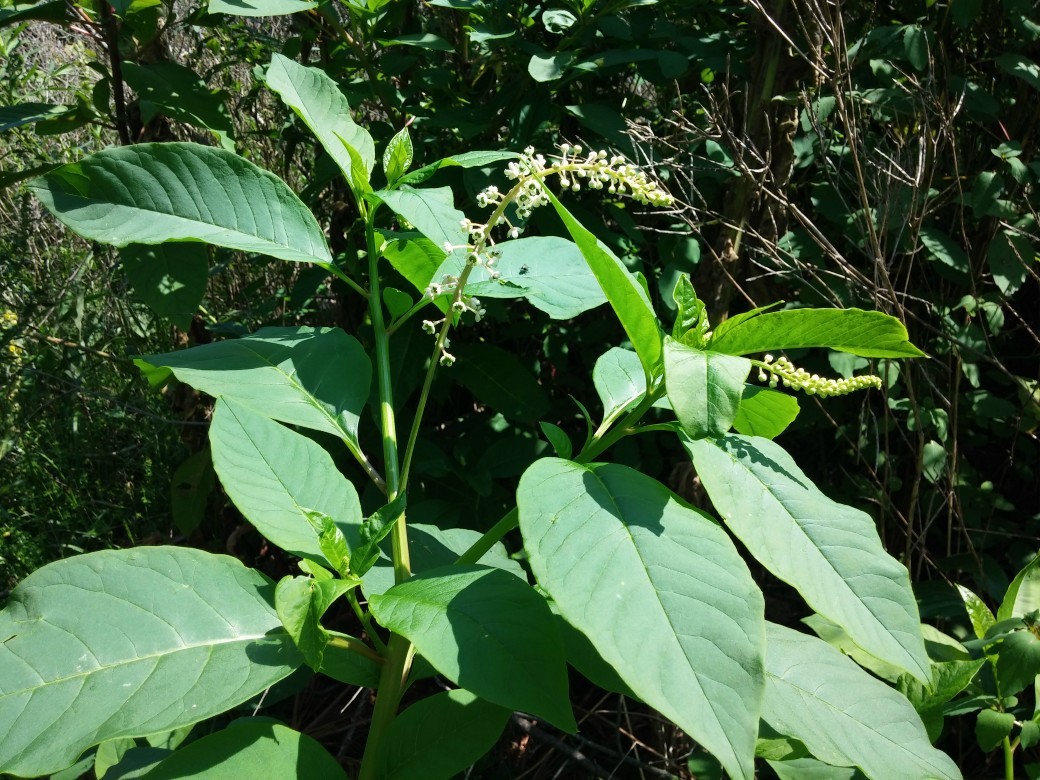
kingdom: Plantae
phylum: Tracheophyta
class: Magnoliopsida
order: Caryophyllales
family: Phytolaccaceae
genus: Phytolacca
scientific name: Phytolacca americana
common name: American pokeweed
